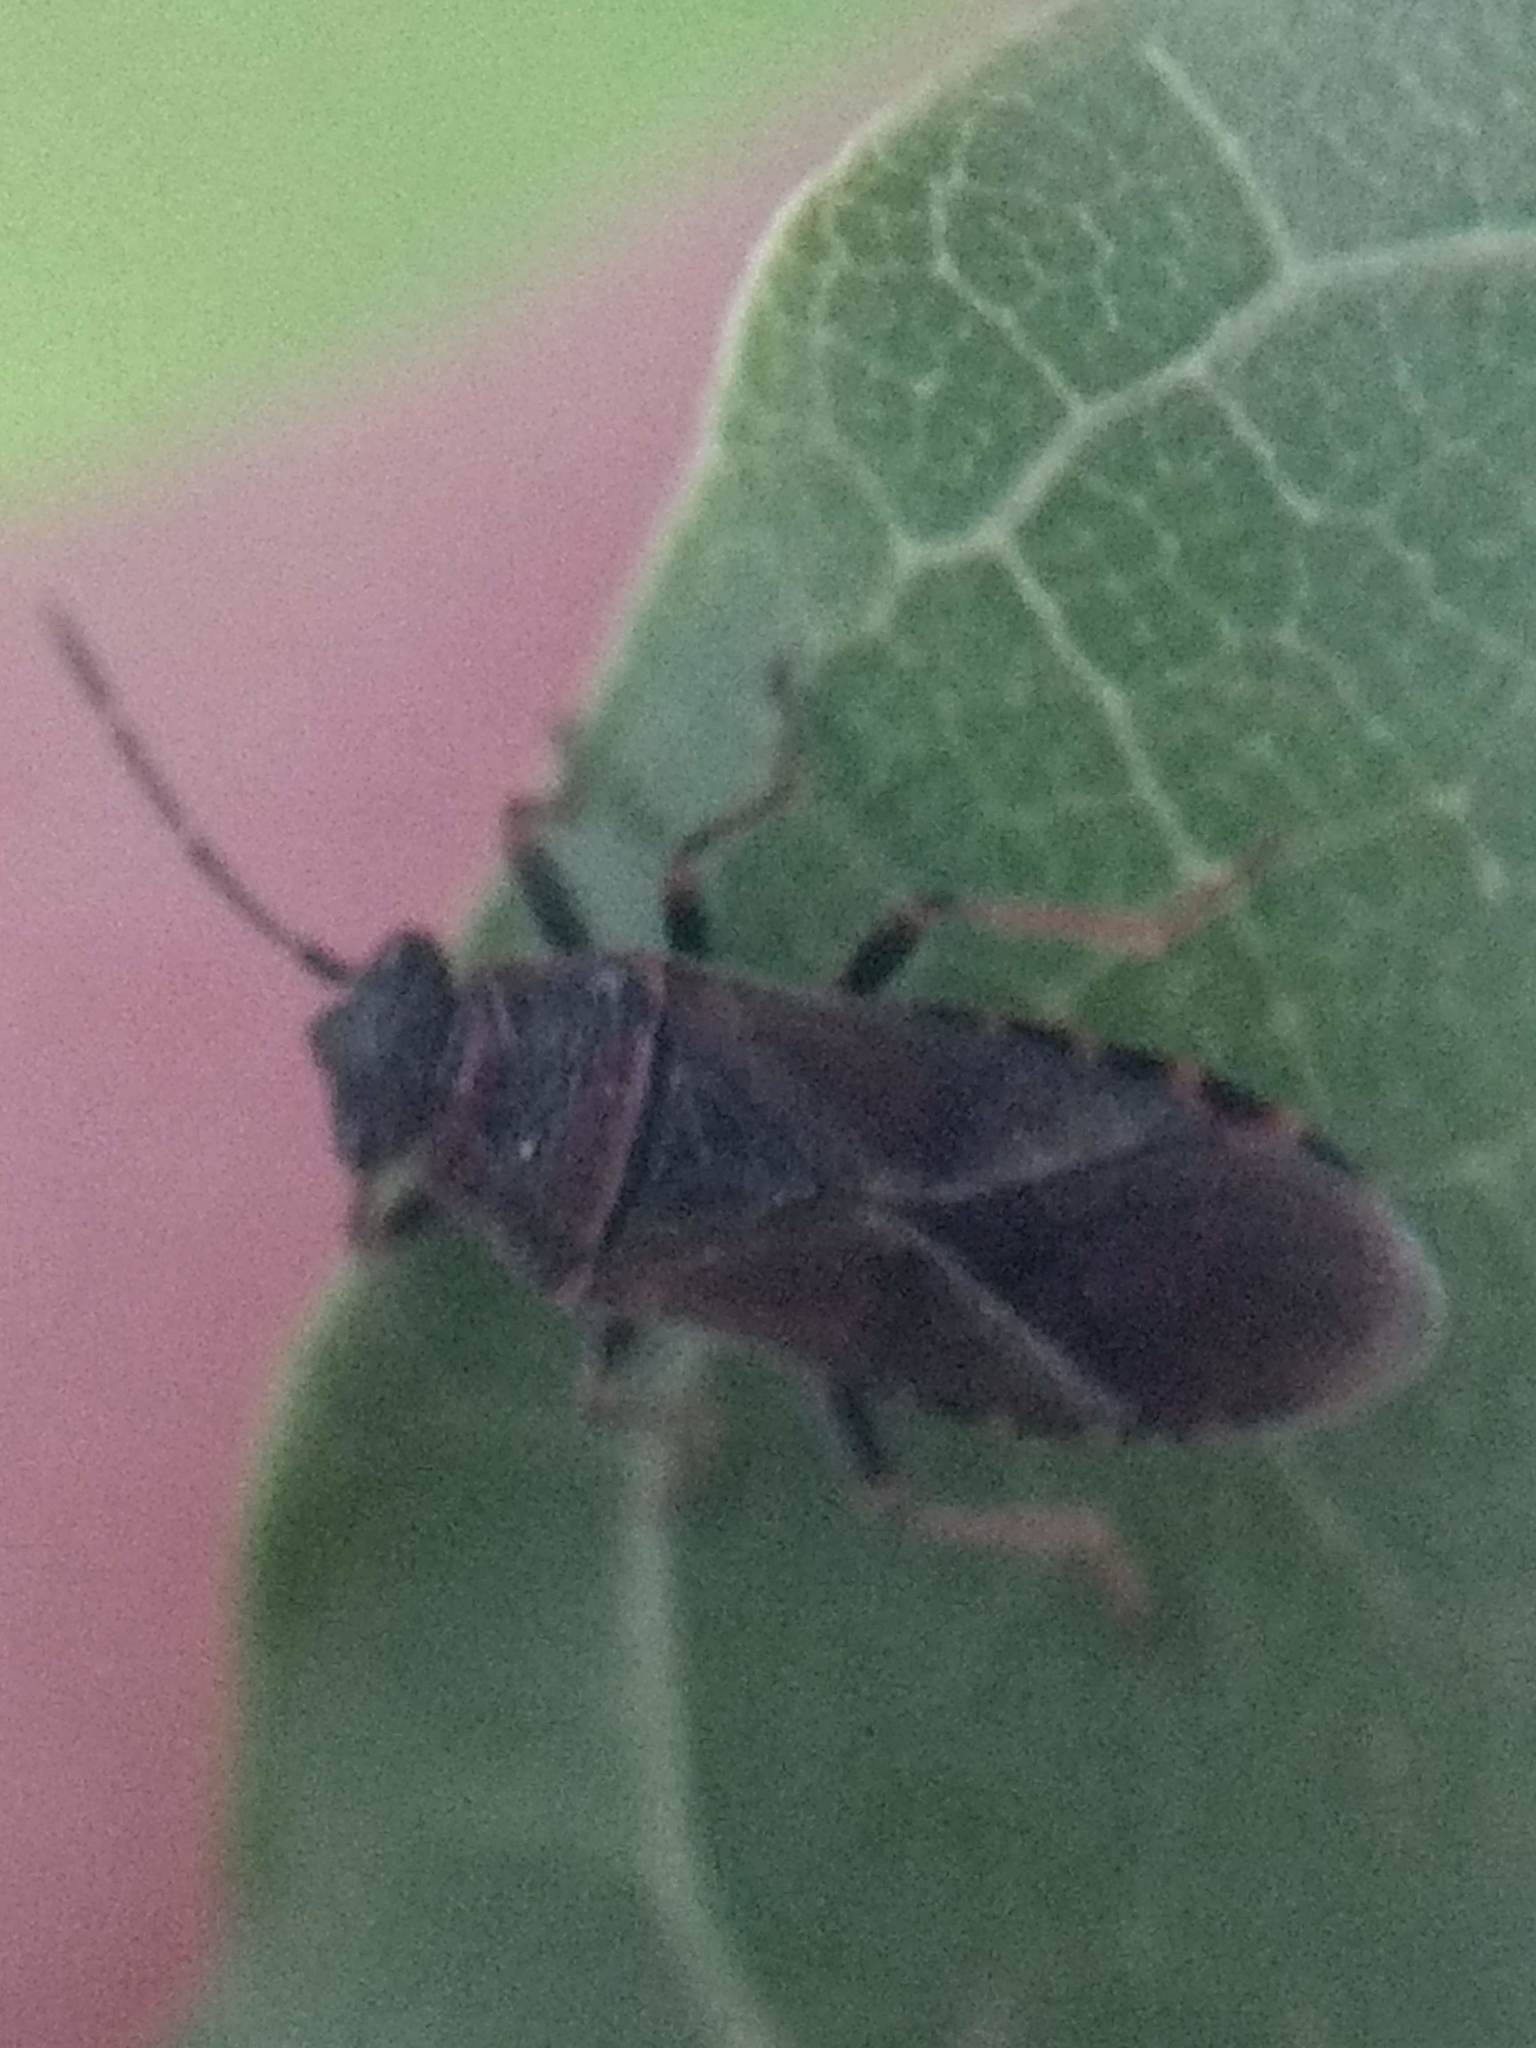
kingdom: Animalia
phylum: Arthropoda
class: Insecta
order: Hemiptera
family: Lygaeidae
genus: Arocatus
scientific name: Arocatus melanocephalus
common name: Lygaeid bug
